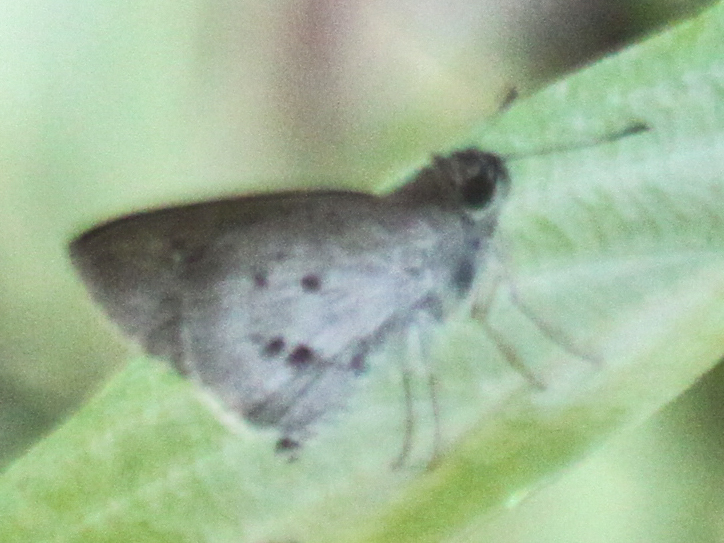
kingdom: Animalia
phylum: Arthropoda
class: Insecta
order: Lepidoptera
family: Hesperiidae
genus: Suastus
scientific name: Suastus minuta
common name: Small palm bob
